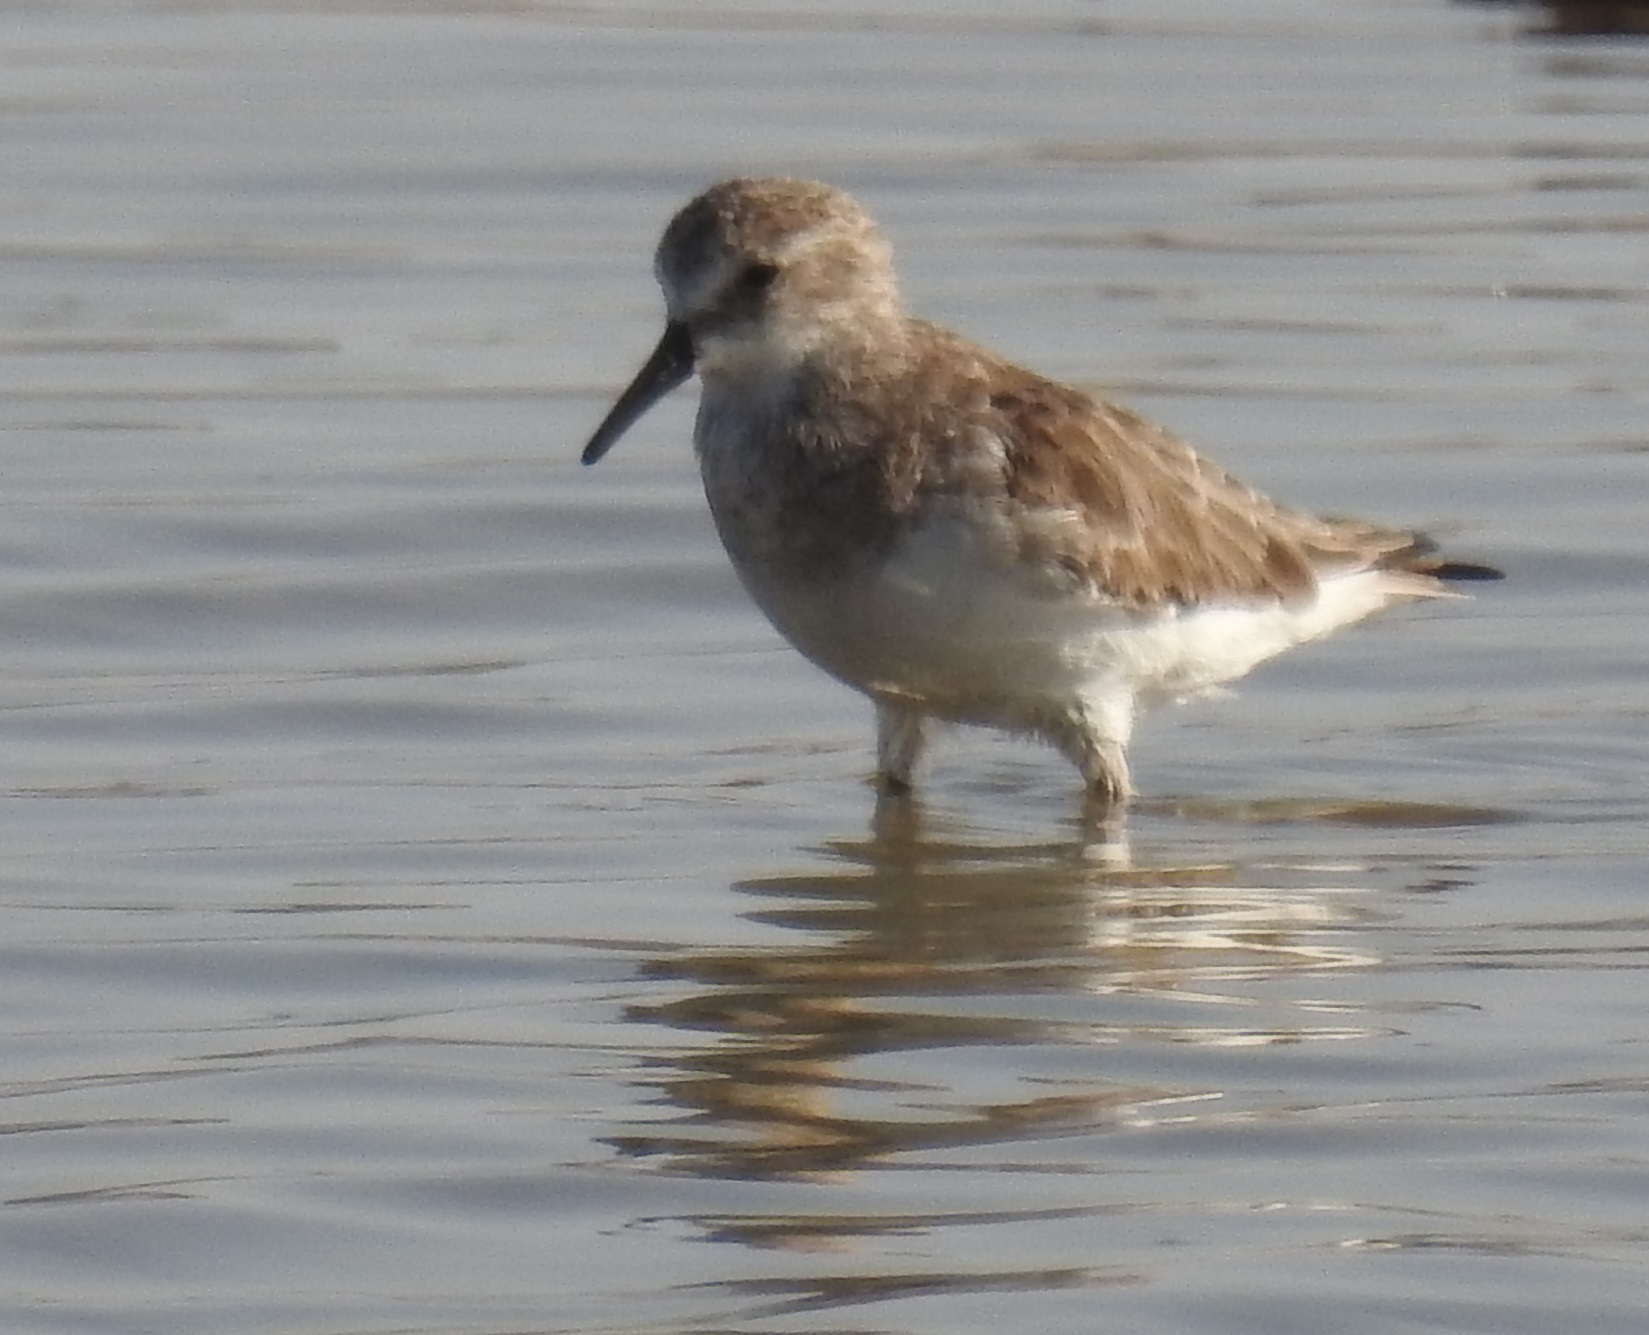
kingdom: Animalia
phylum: Chordata
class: Aves
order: Charadriiformes
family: Scolopacidae
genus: Calidris
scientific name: Calidris minuta
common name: Little stint
